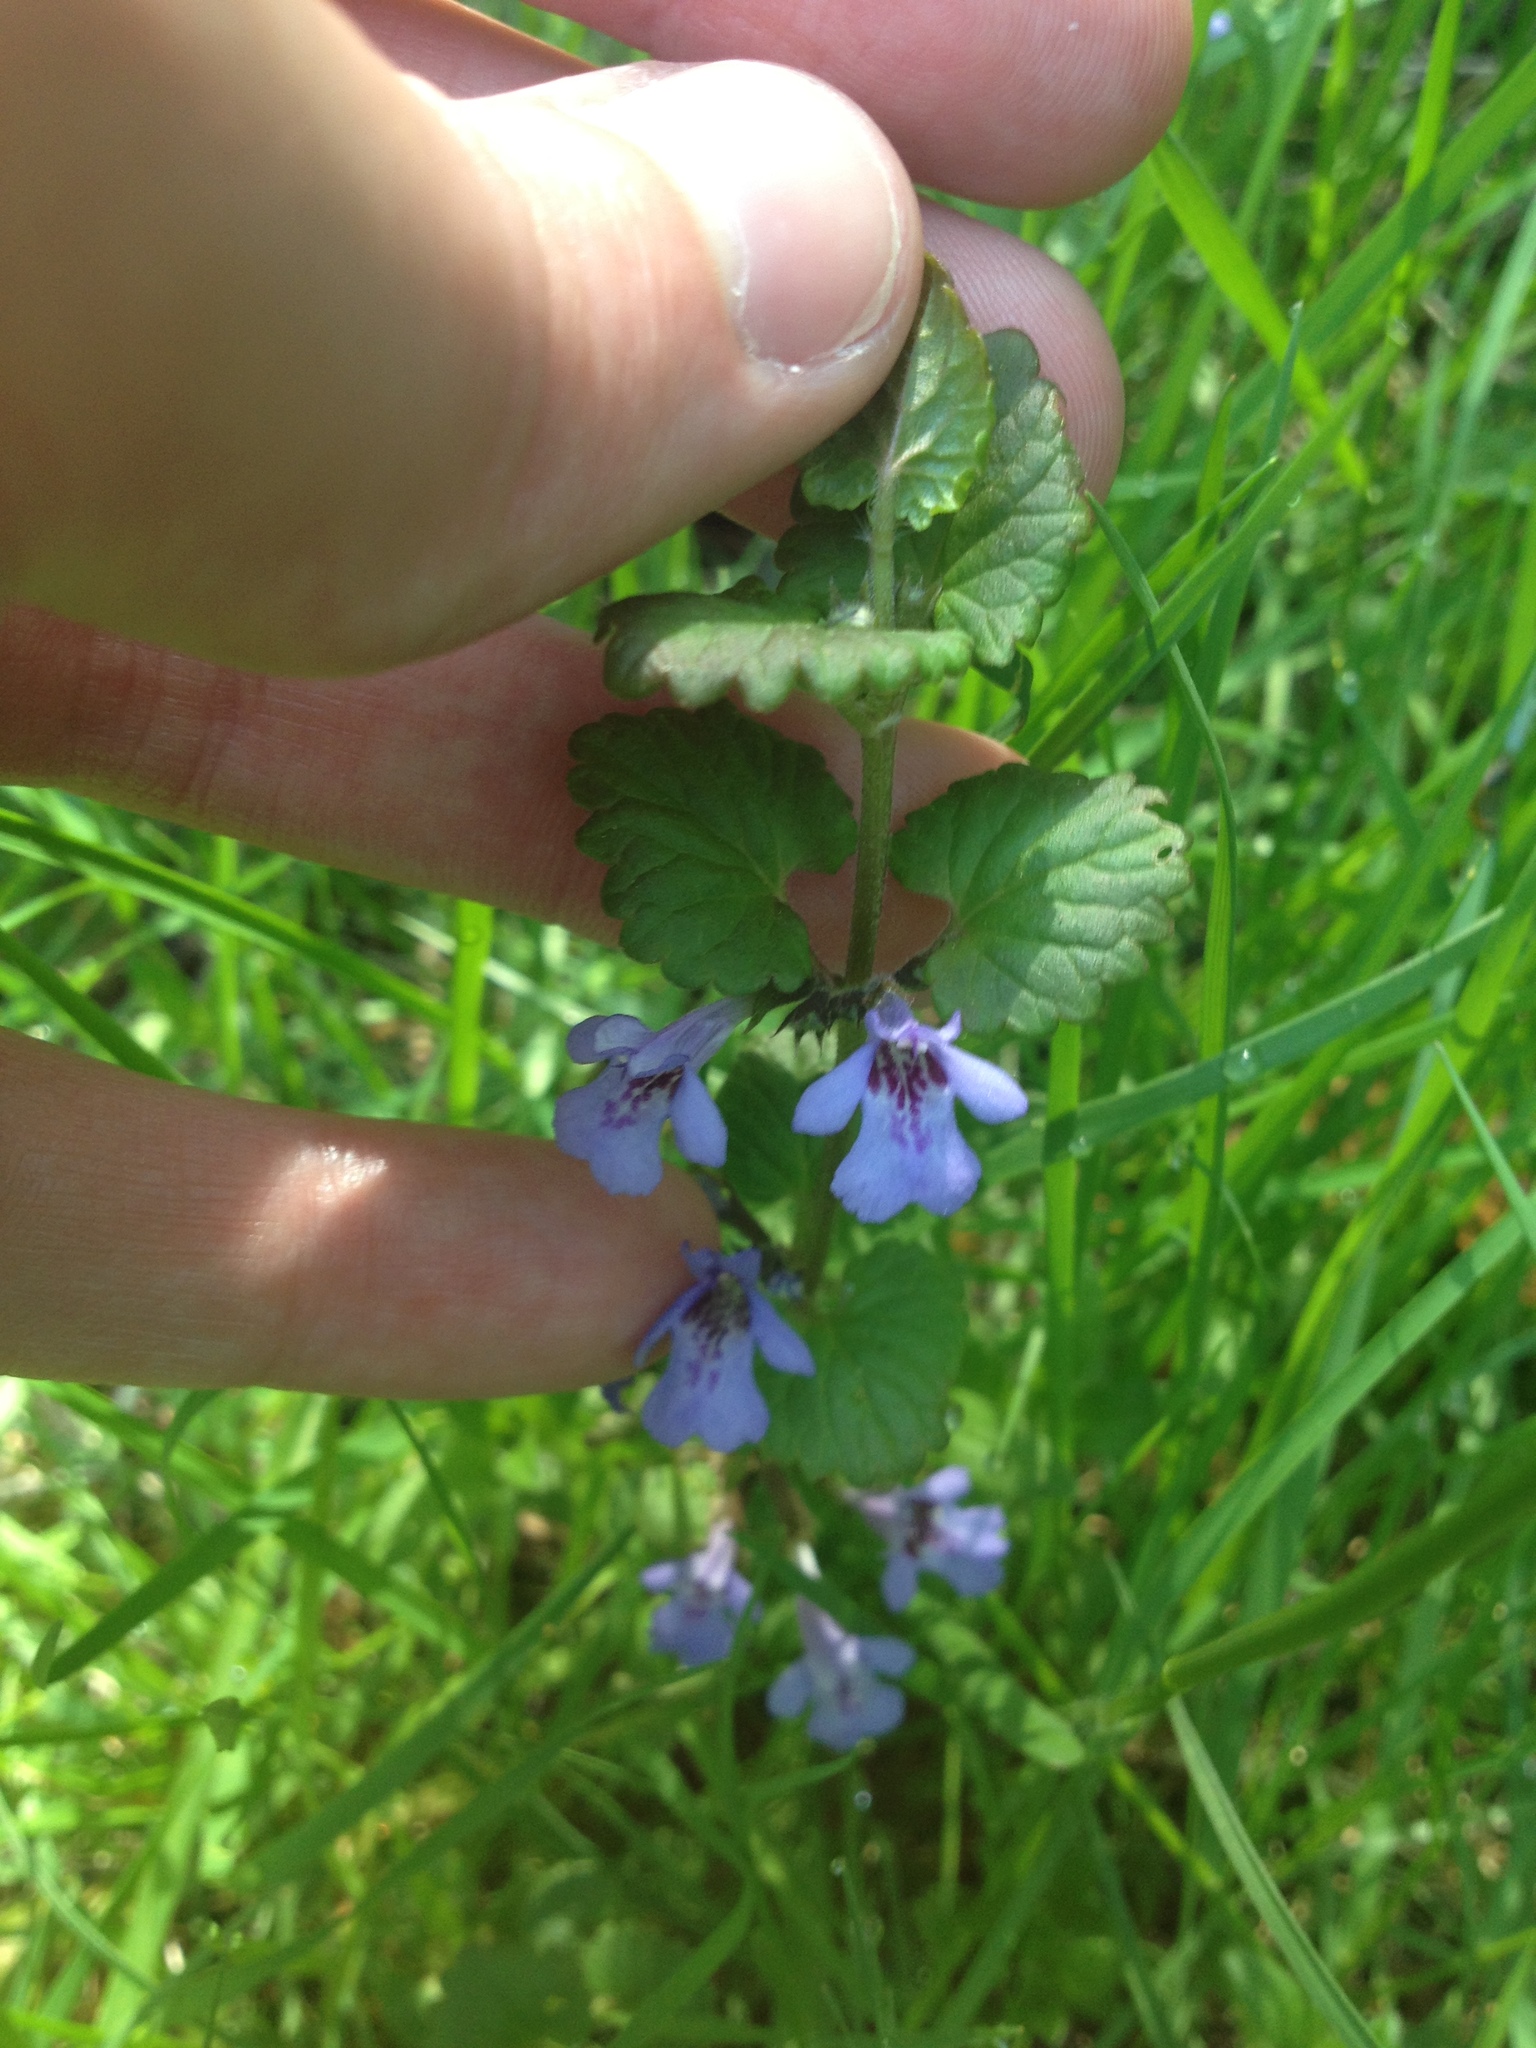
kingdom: Plantae
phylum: Tracheophyta
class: Magnoliopsida
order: Lamiales
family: Lamiaceae
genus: Glechoma
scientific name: Glechoma hederacea
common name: Ground ivy
